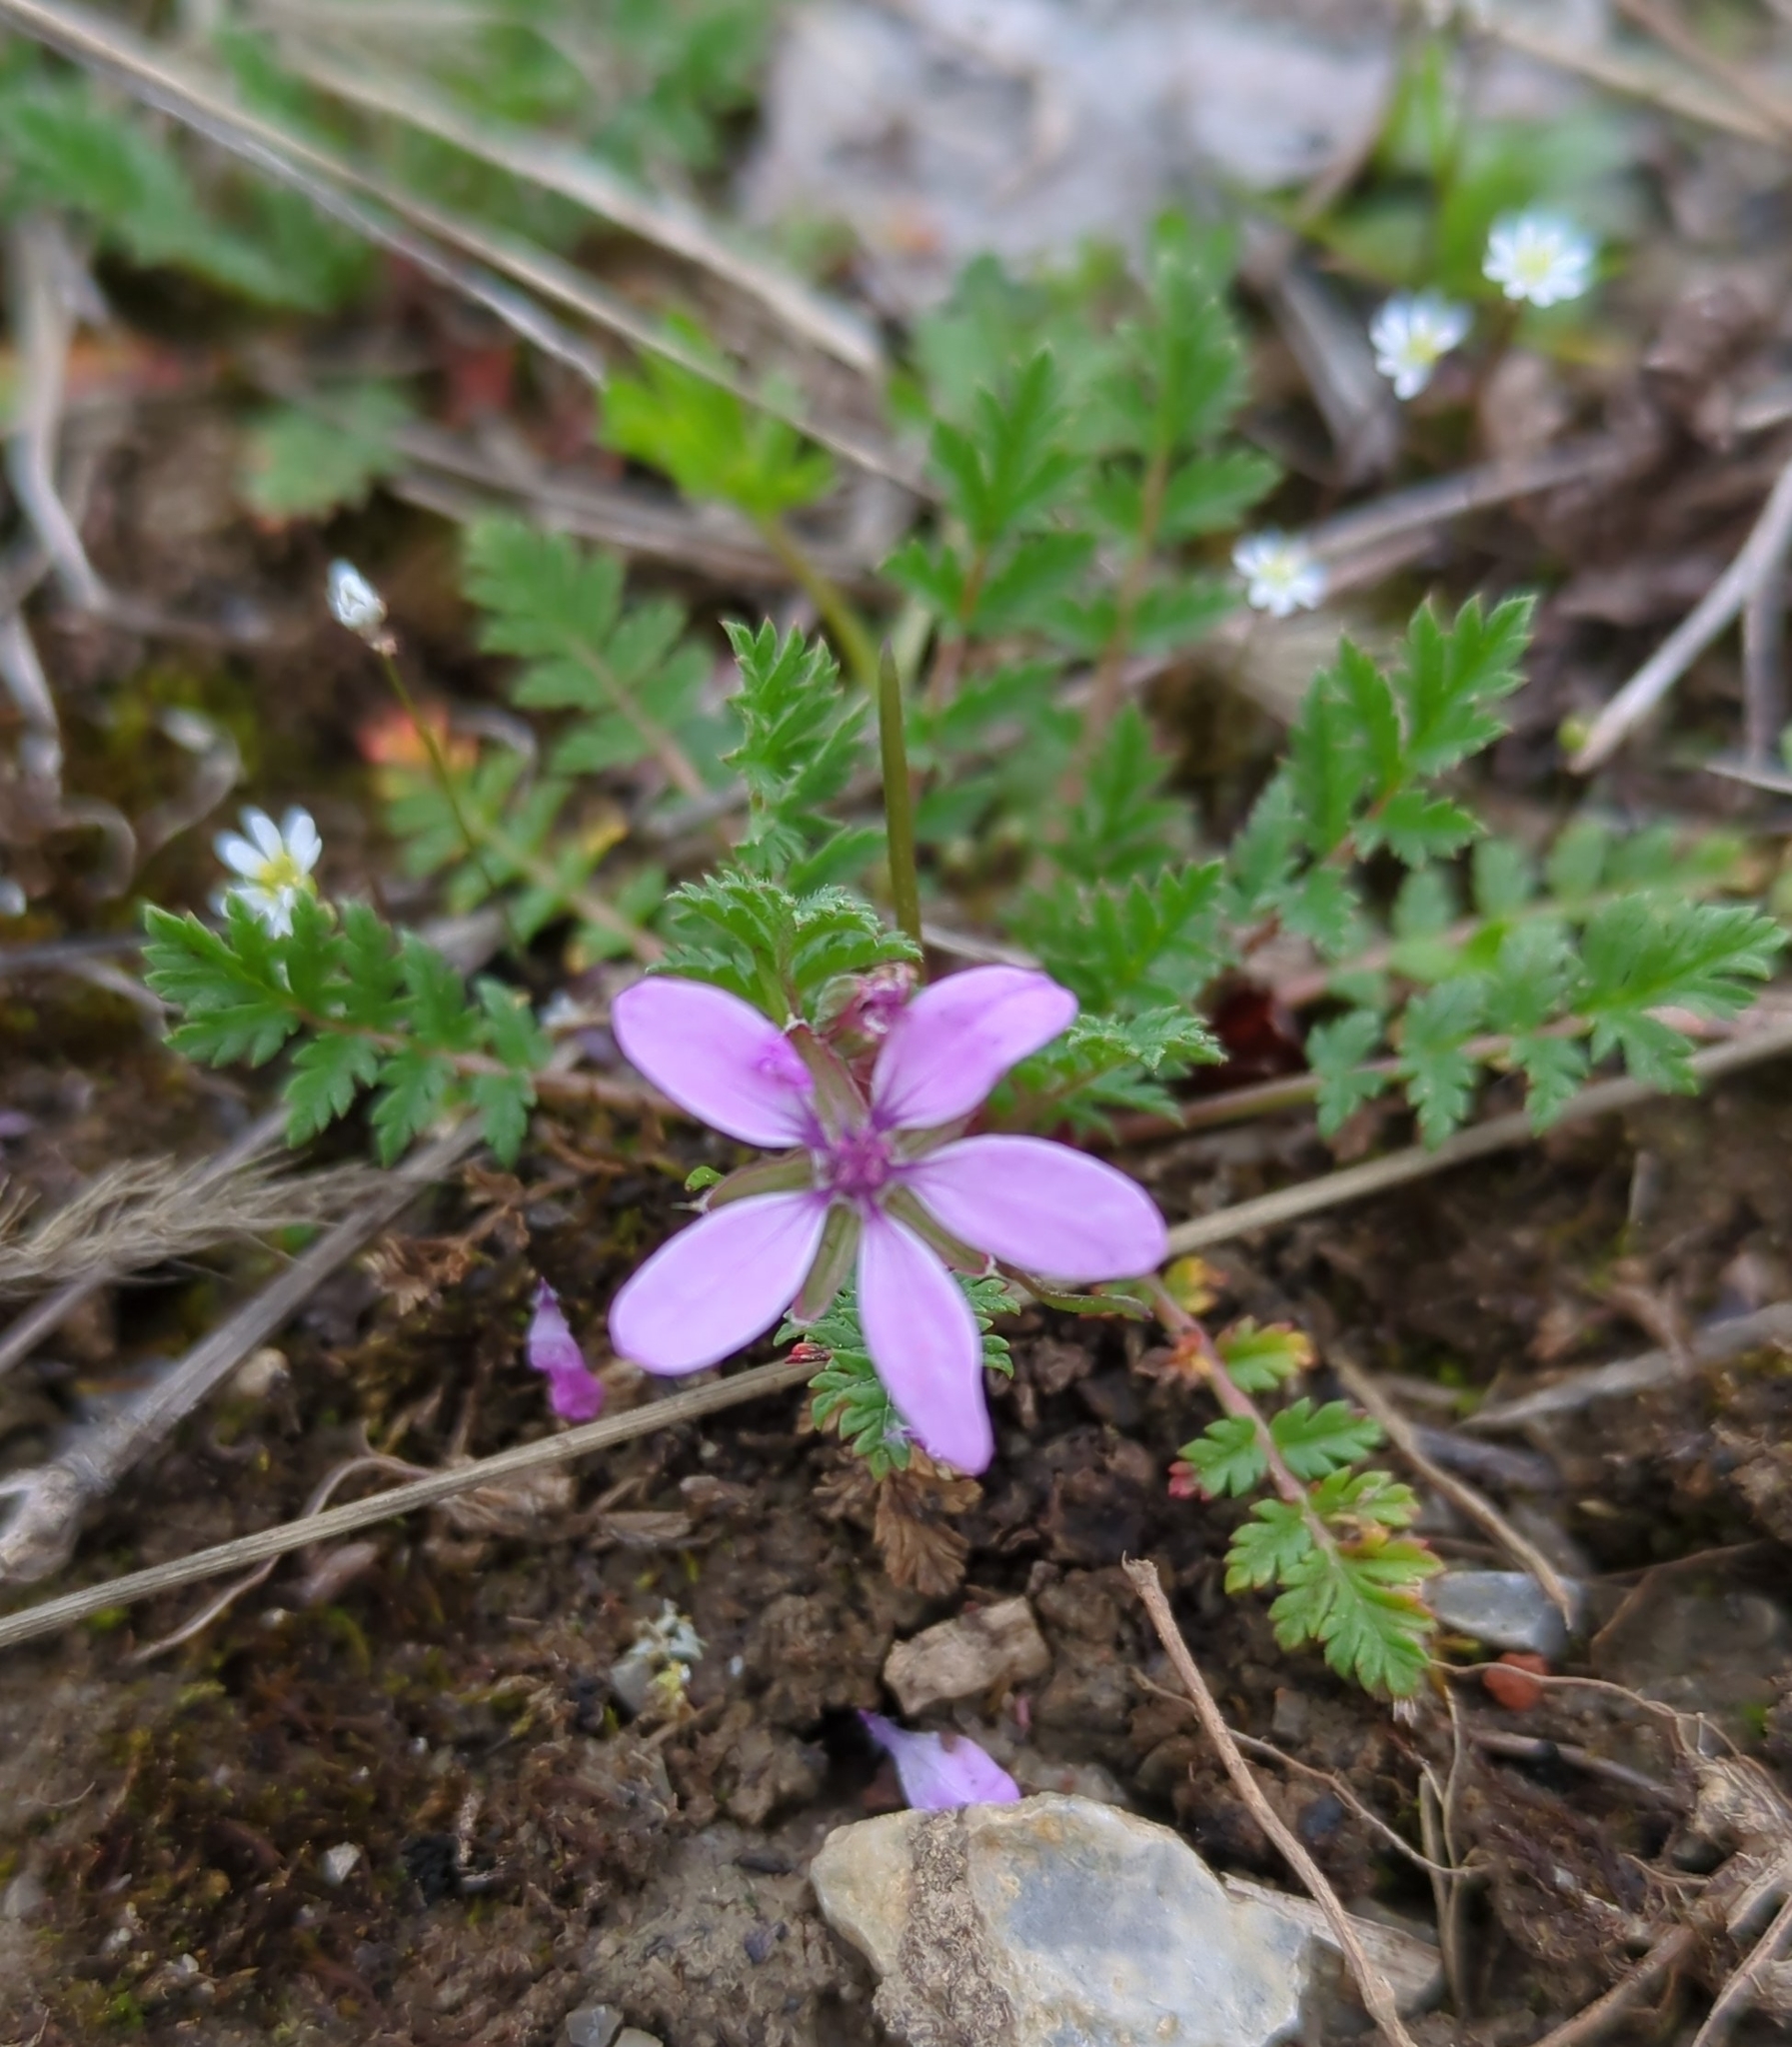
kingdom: Plantae
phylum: Tracheophyta
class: Magnoliopsida
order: Geraniales
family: Geraniaceae
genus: Erodium
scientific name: Erodium cicutarium
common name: Common stork's-bill
